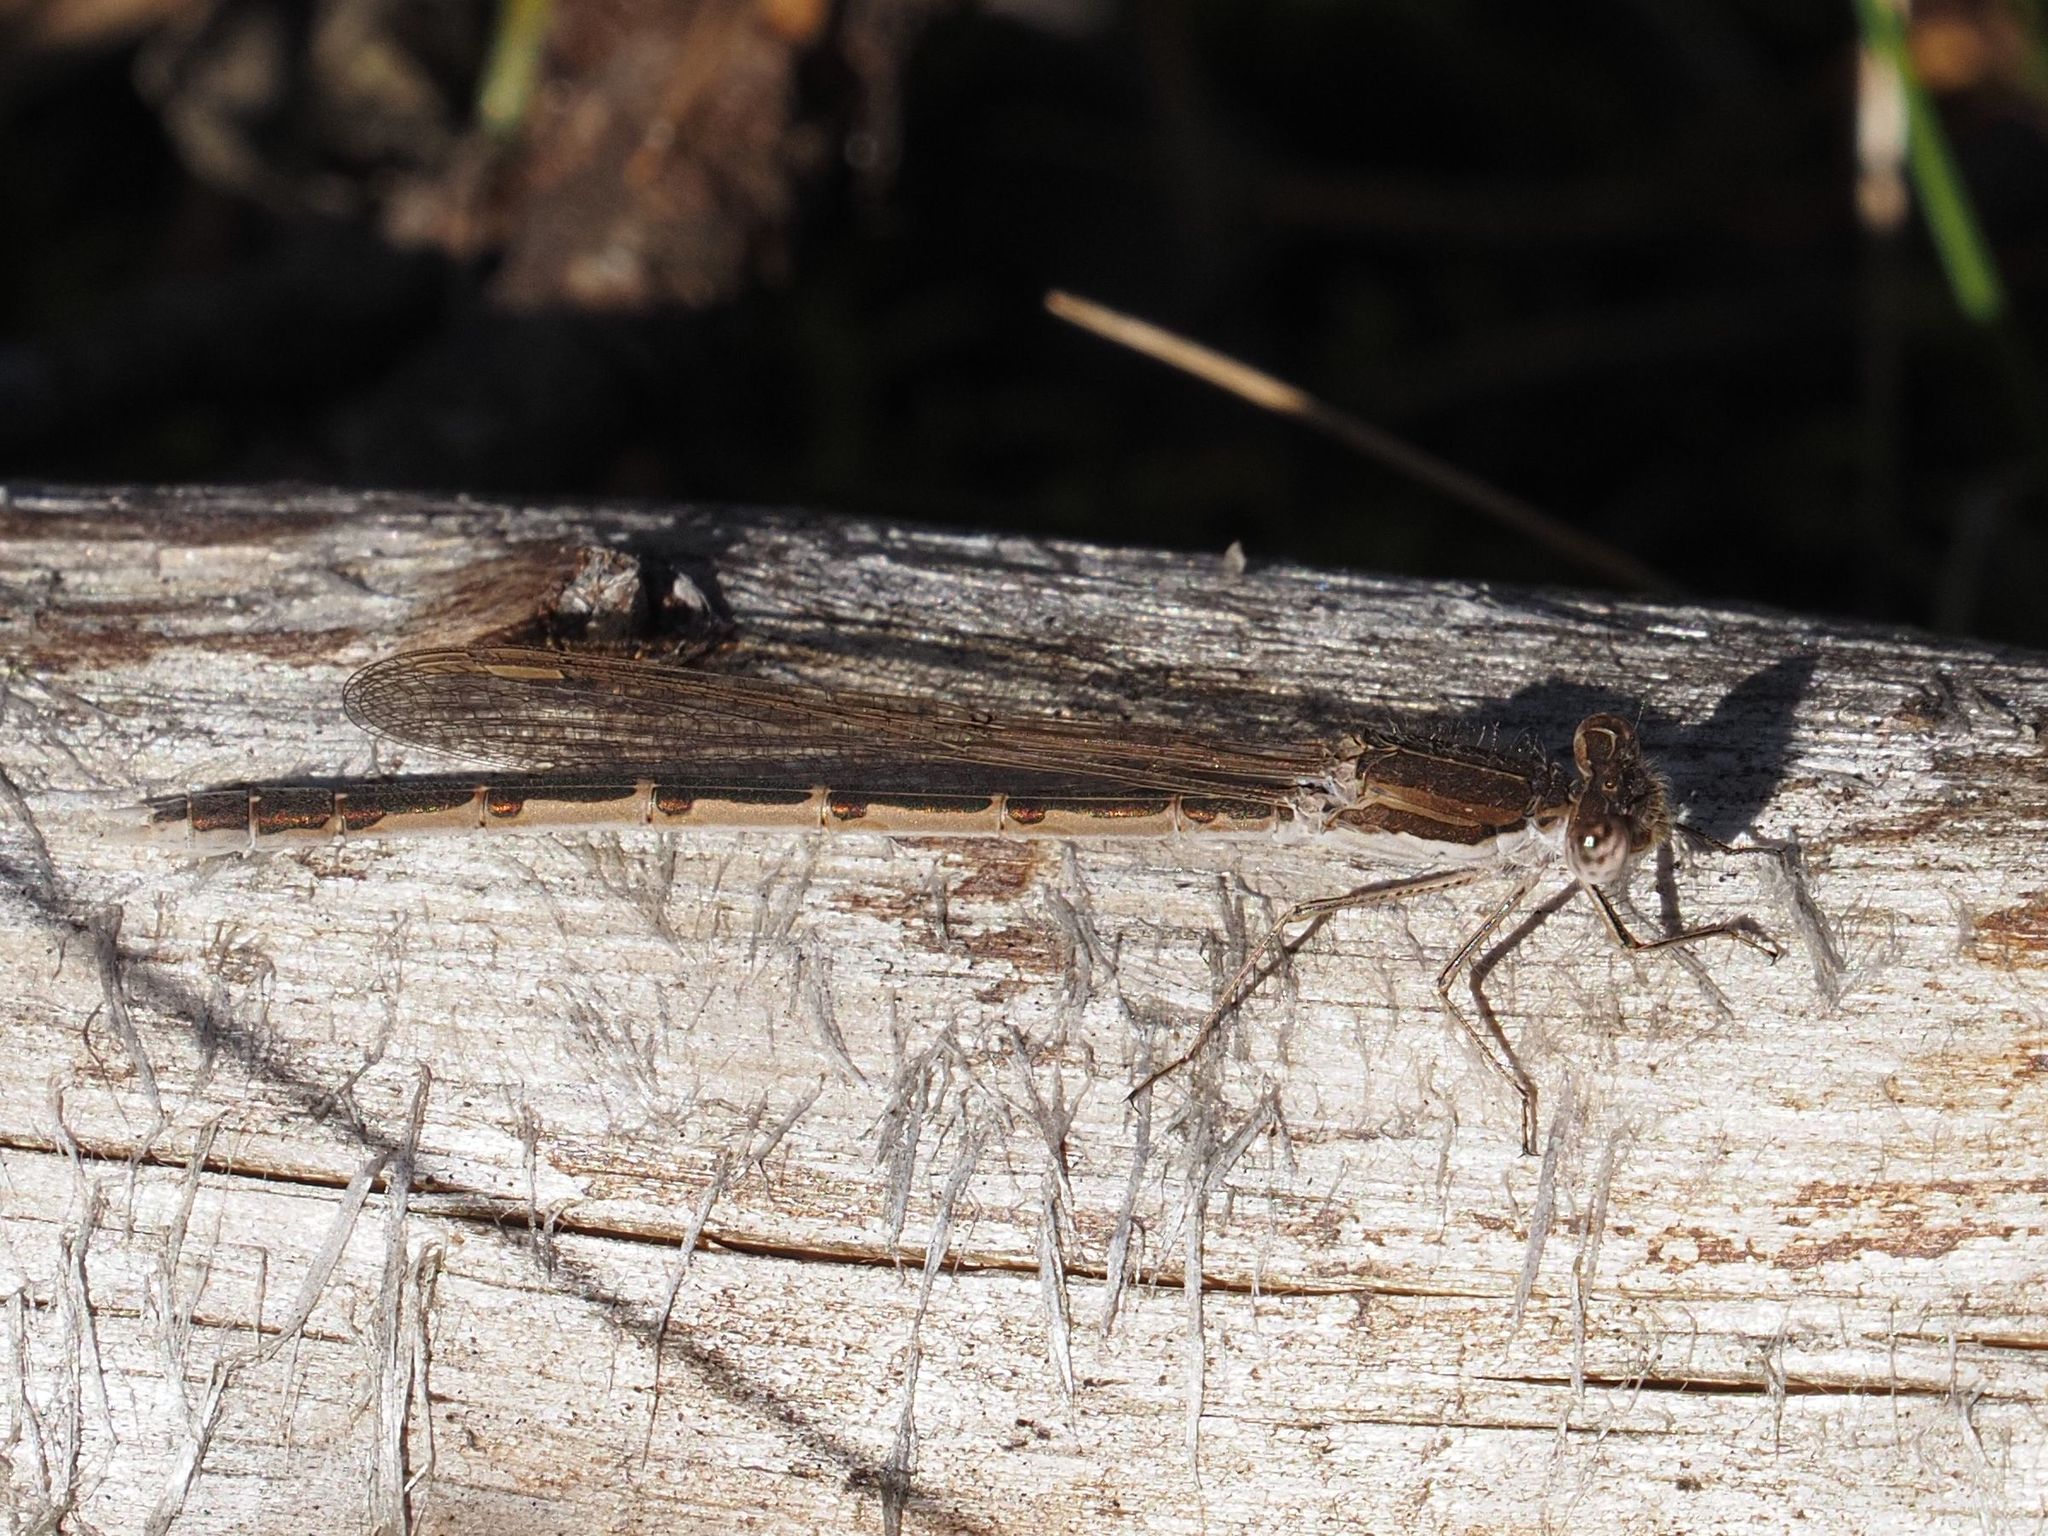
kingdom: Animalia
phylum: Arthropoda
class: Insecta
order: Odonata
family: Lestidae
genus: Sympecma
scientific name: Sympecma fusca
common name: Common winter damsel
